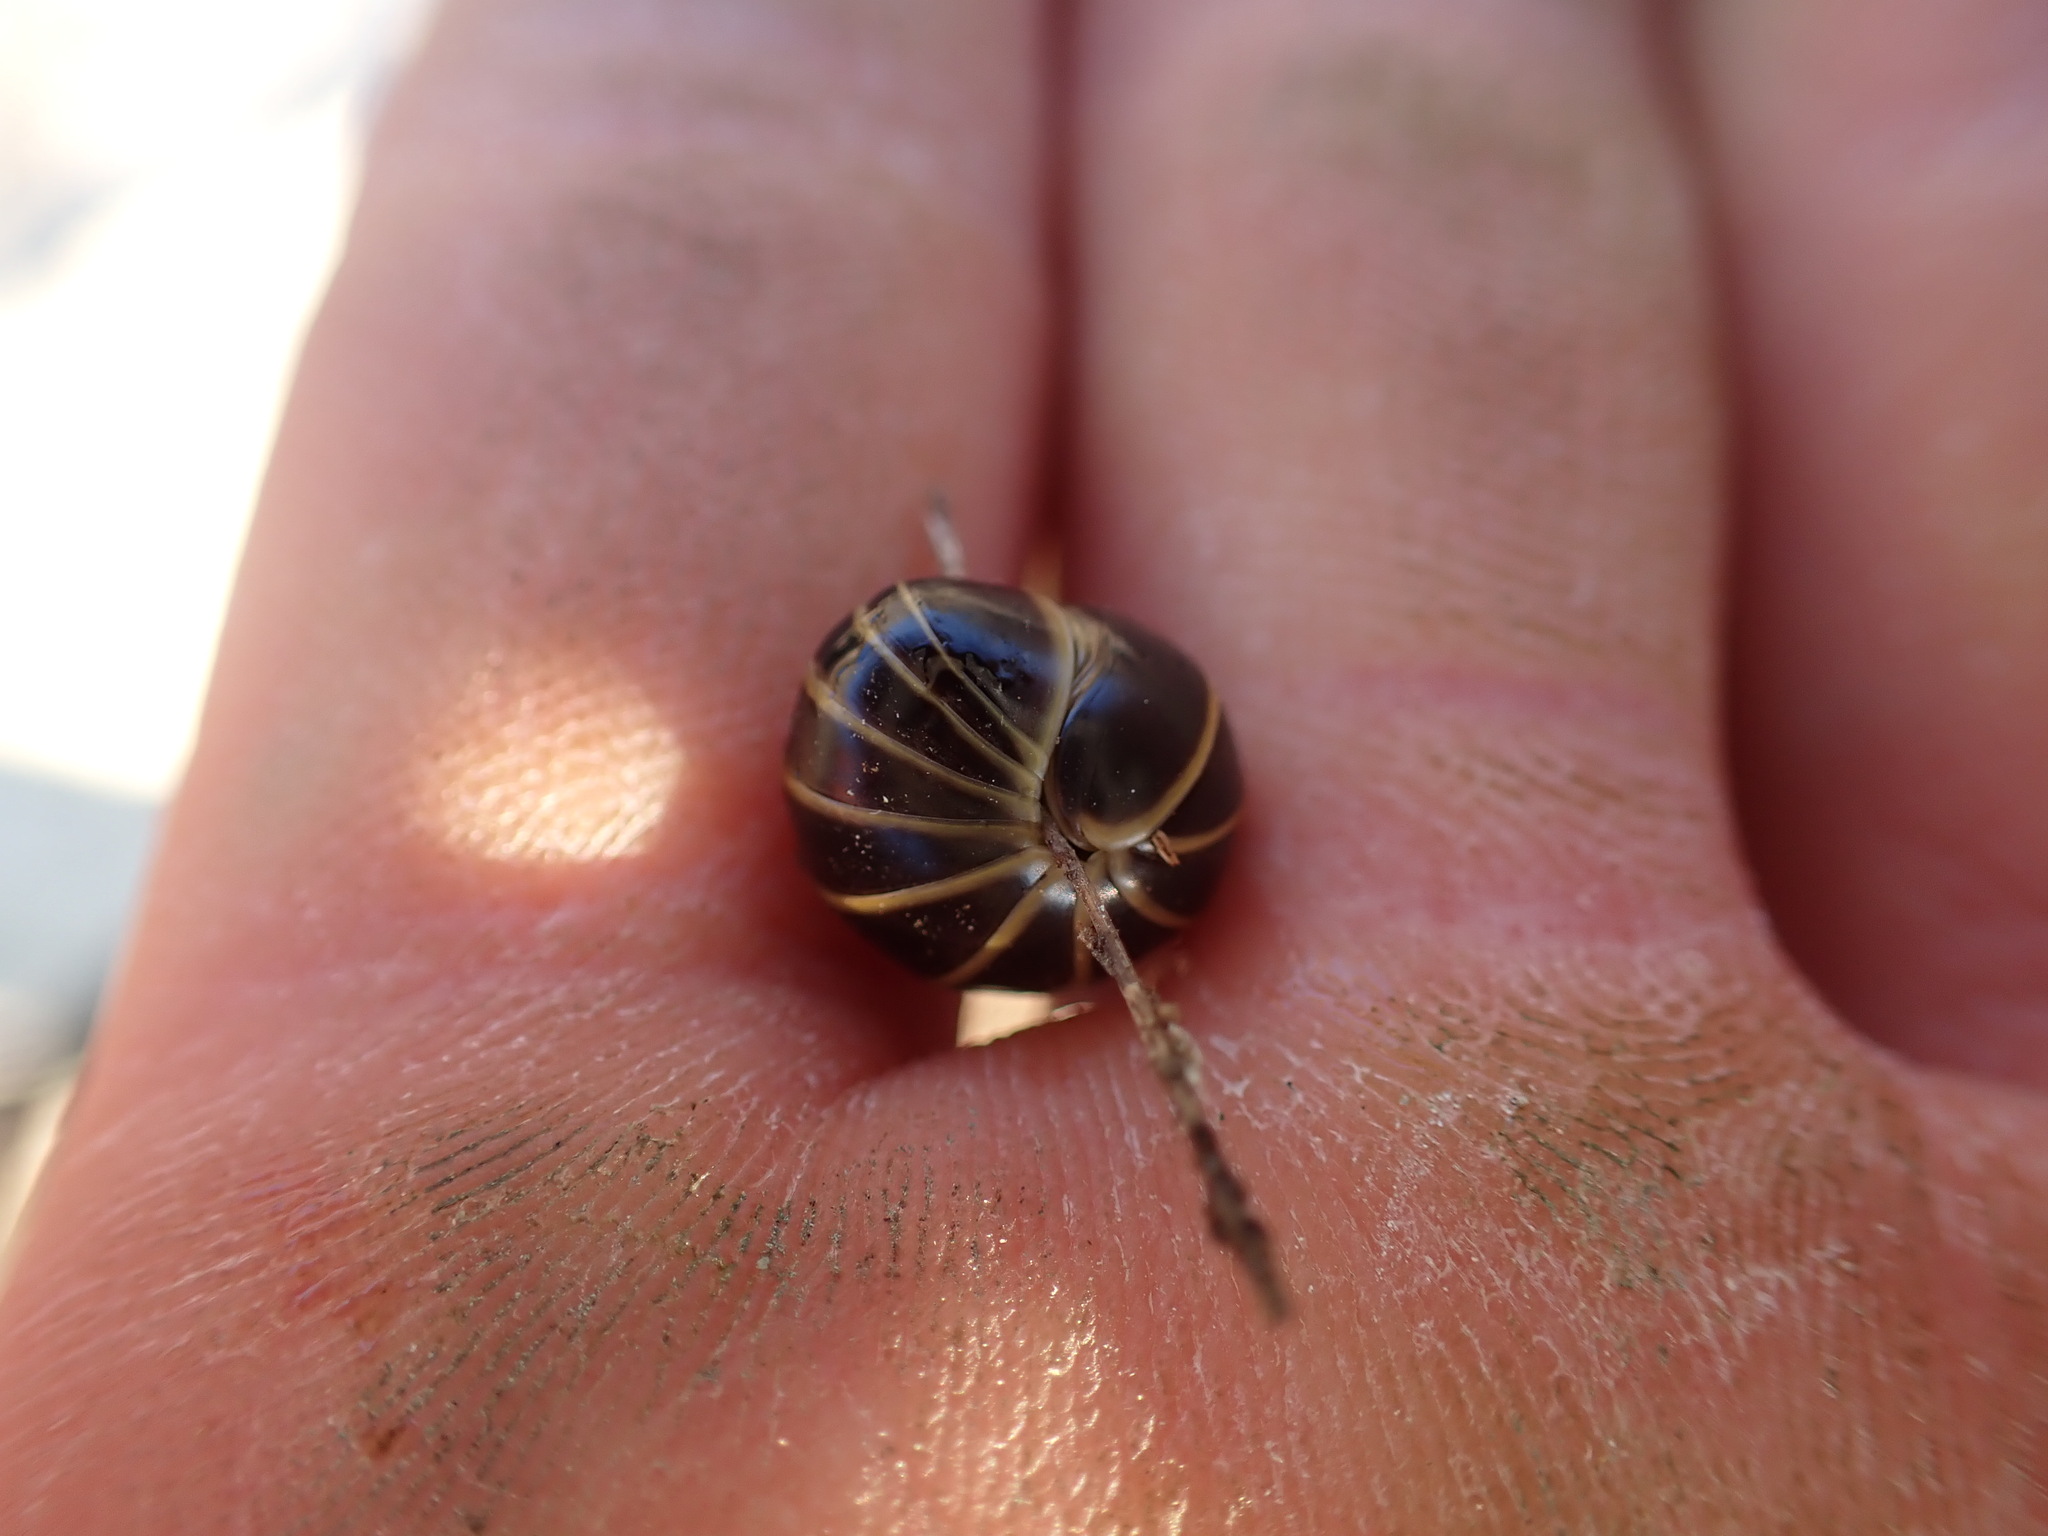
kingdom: Animalia
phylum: Arthropoda
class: Diplopoda
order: Glomerida
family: Glomeridae
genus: Glomeris
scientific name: Glomeris marginata
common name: Bordered pill millipede
